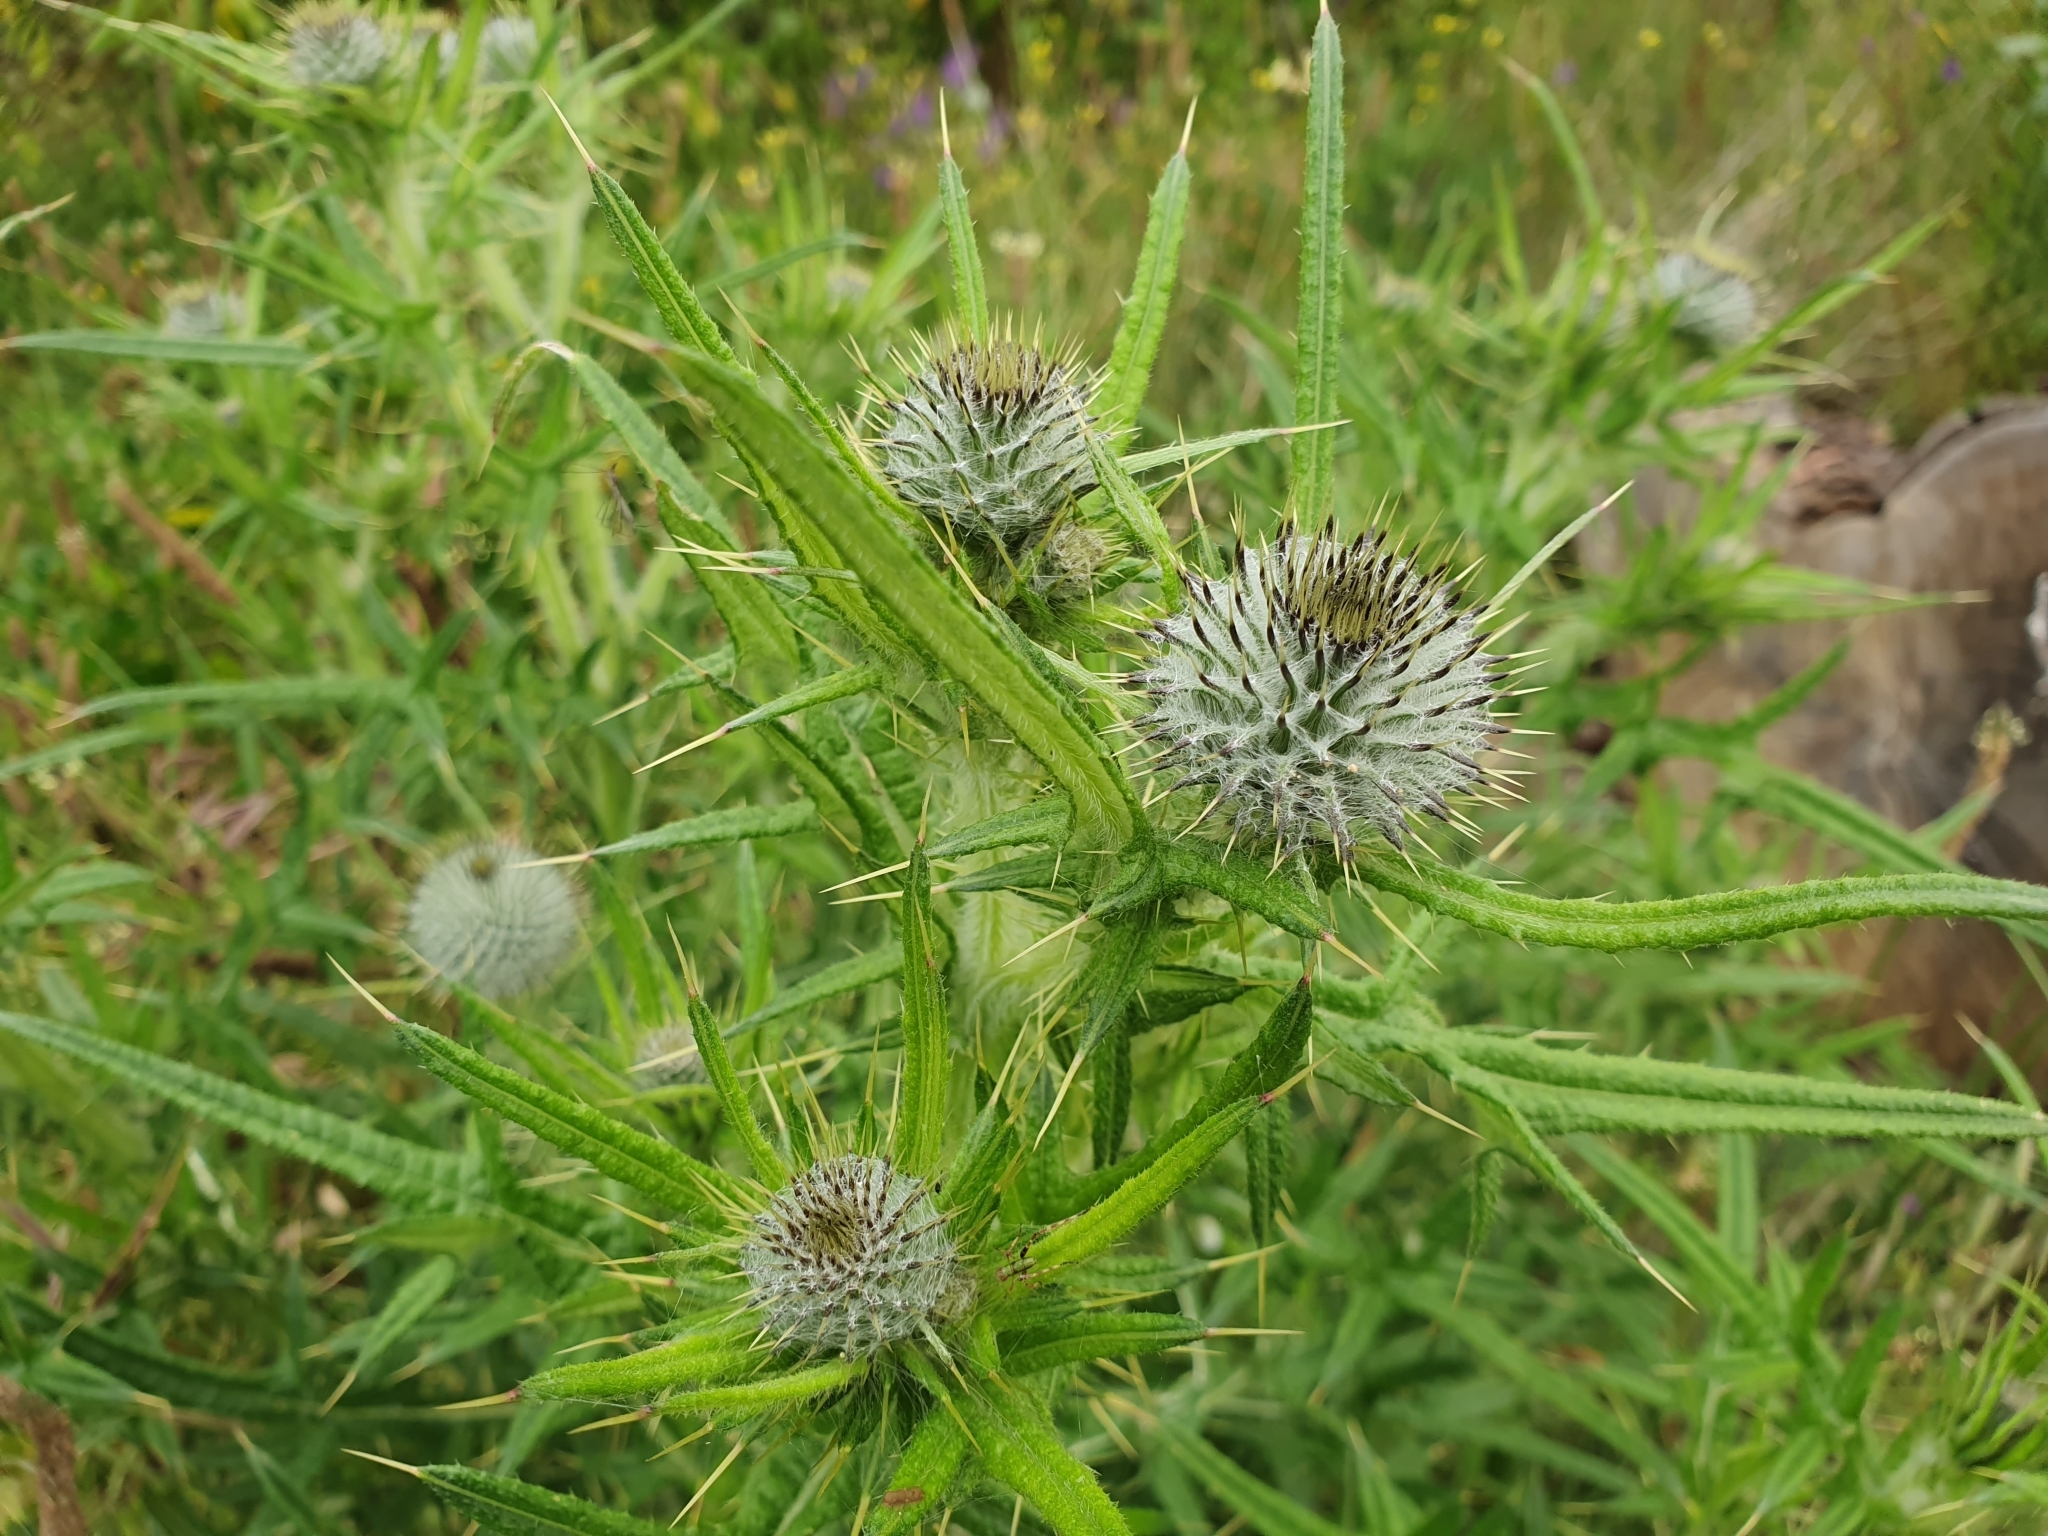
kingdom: Plantae
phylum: Tracheophyta
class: Magnoliopsida
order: Asterales
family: Asteraceae
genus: Cirsium
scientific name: Cirsium vulgare
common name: Bull thistle
